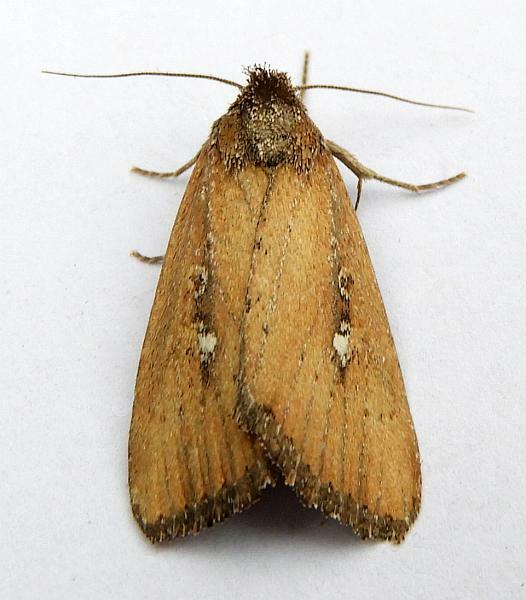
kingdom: Animalia
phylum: Arthropoda
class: Insecta
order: Lepidoptera
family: Noctuidae
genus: Condica
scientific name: Condica videns
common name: White-dotted groundling
